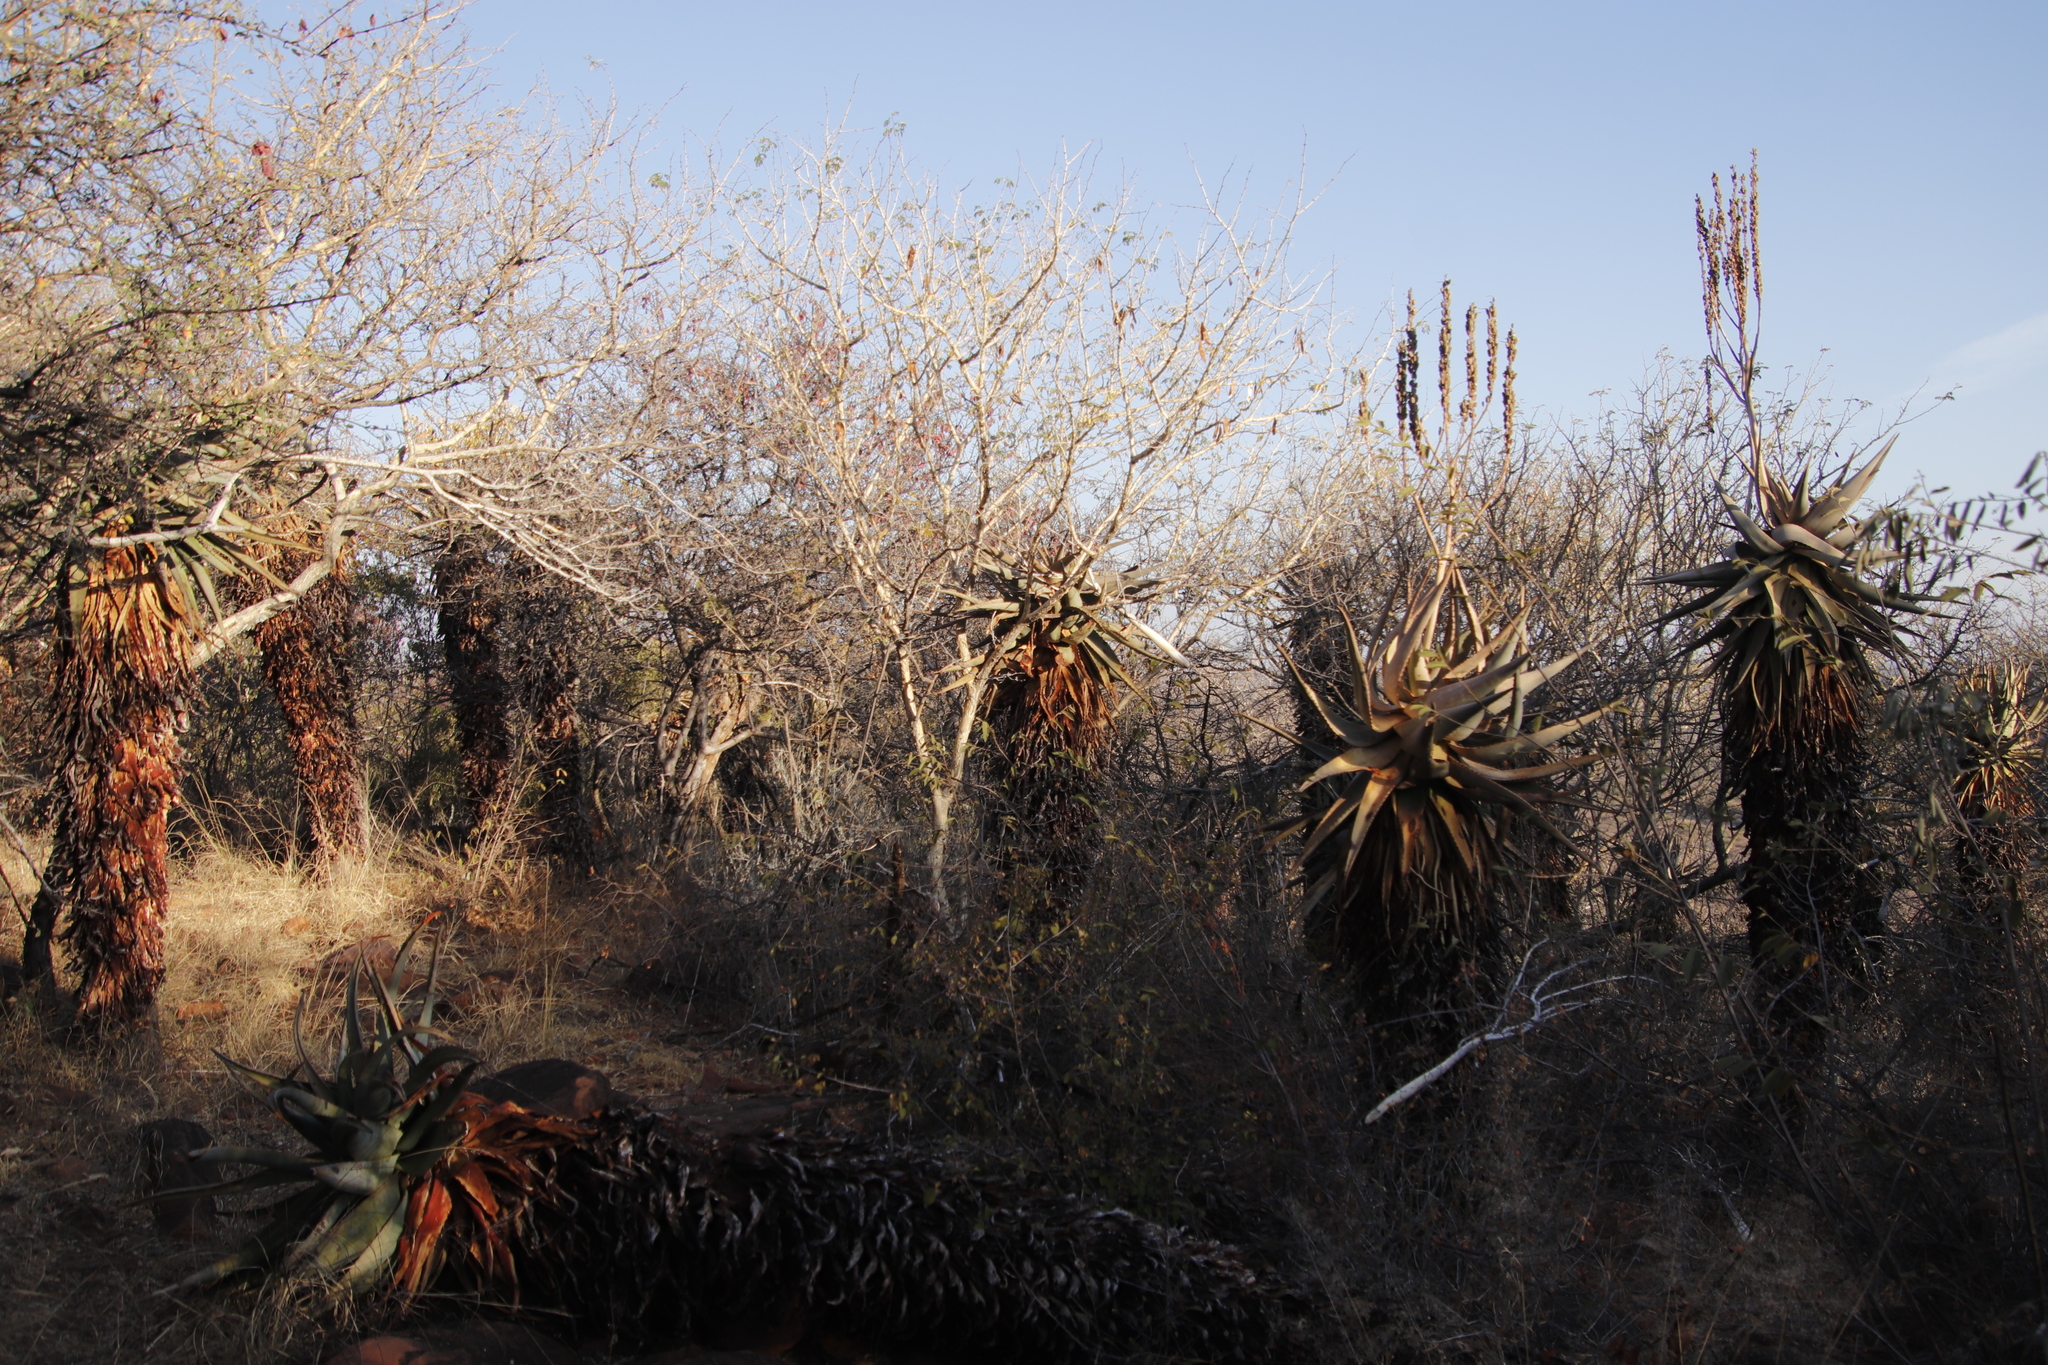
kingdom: Plantae
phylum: Tracheophyta
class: Liliopsida
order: Asparagales
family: Asphodelaceae
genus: Aloe
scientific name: Aloe littoralis
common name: Luanda tree aloe
